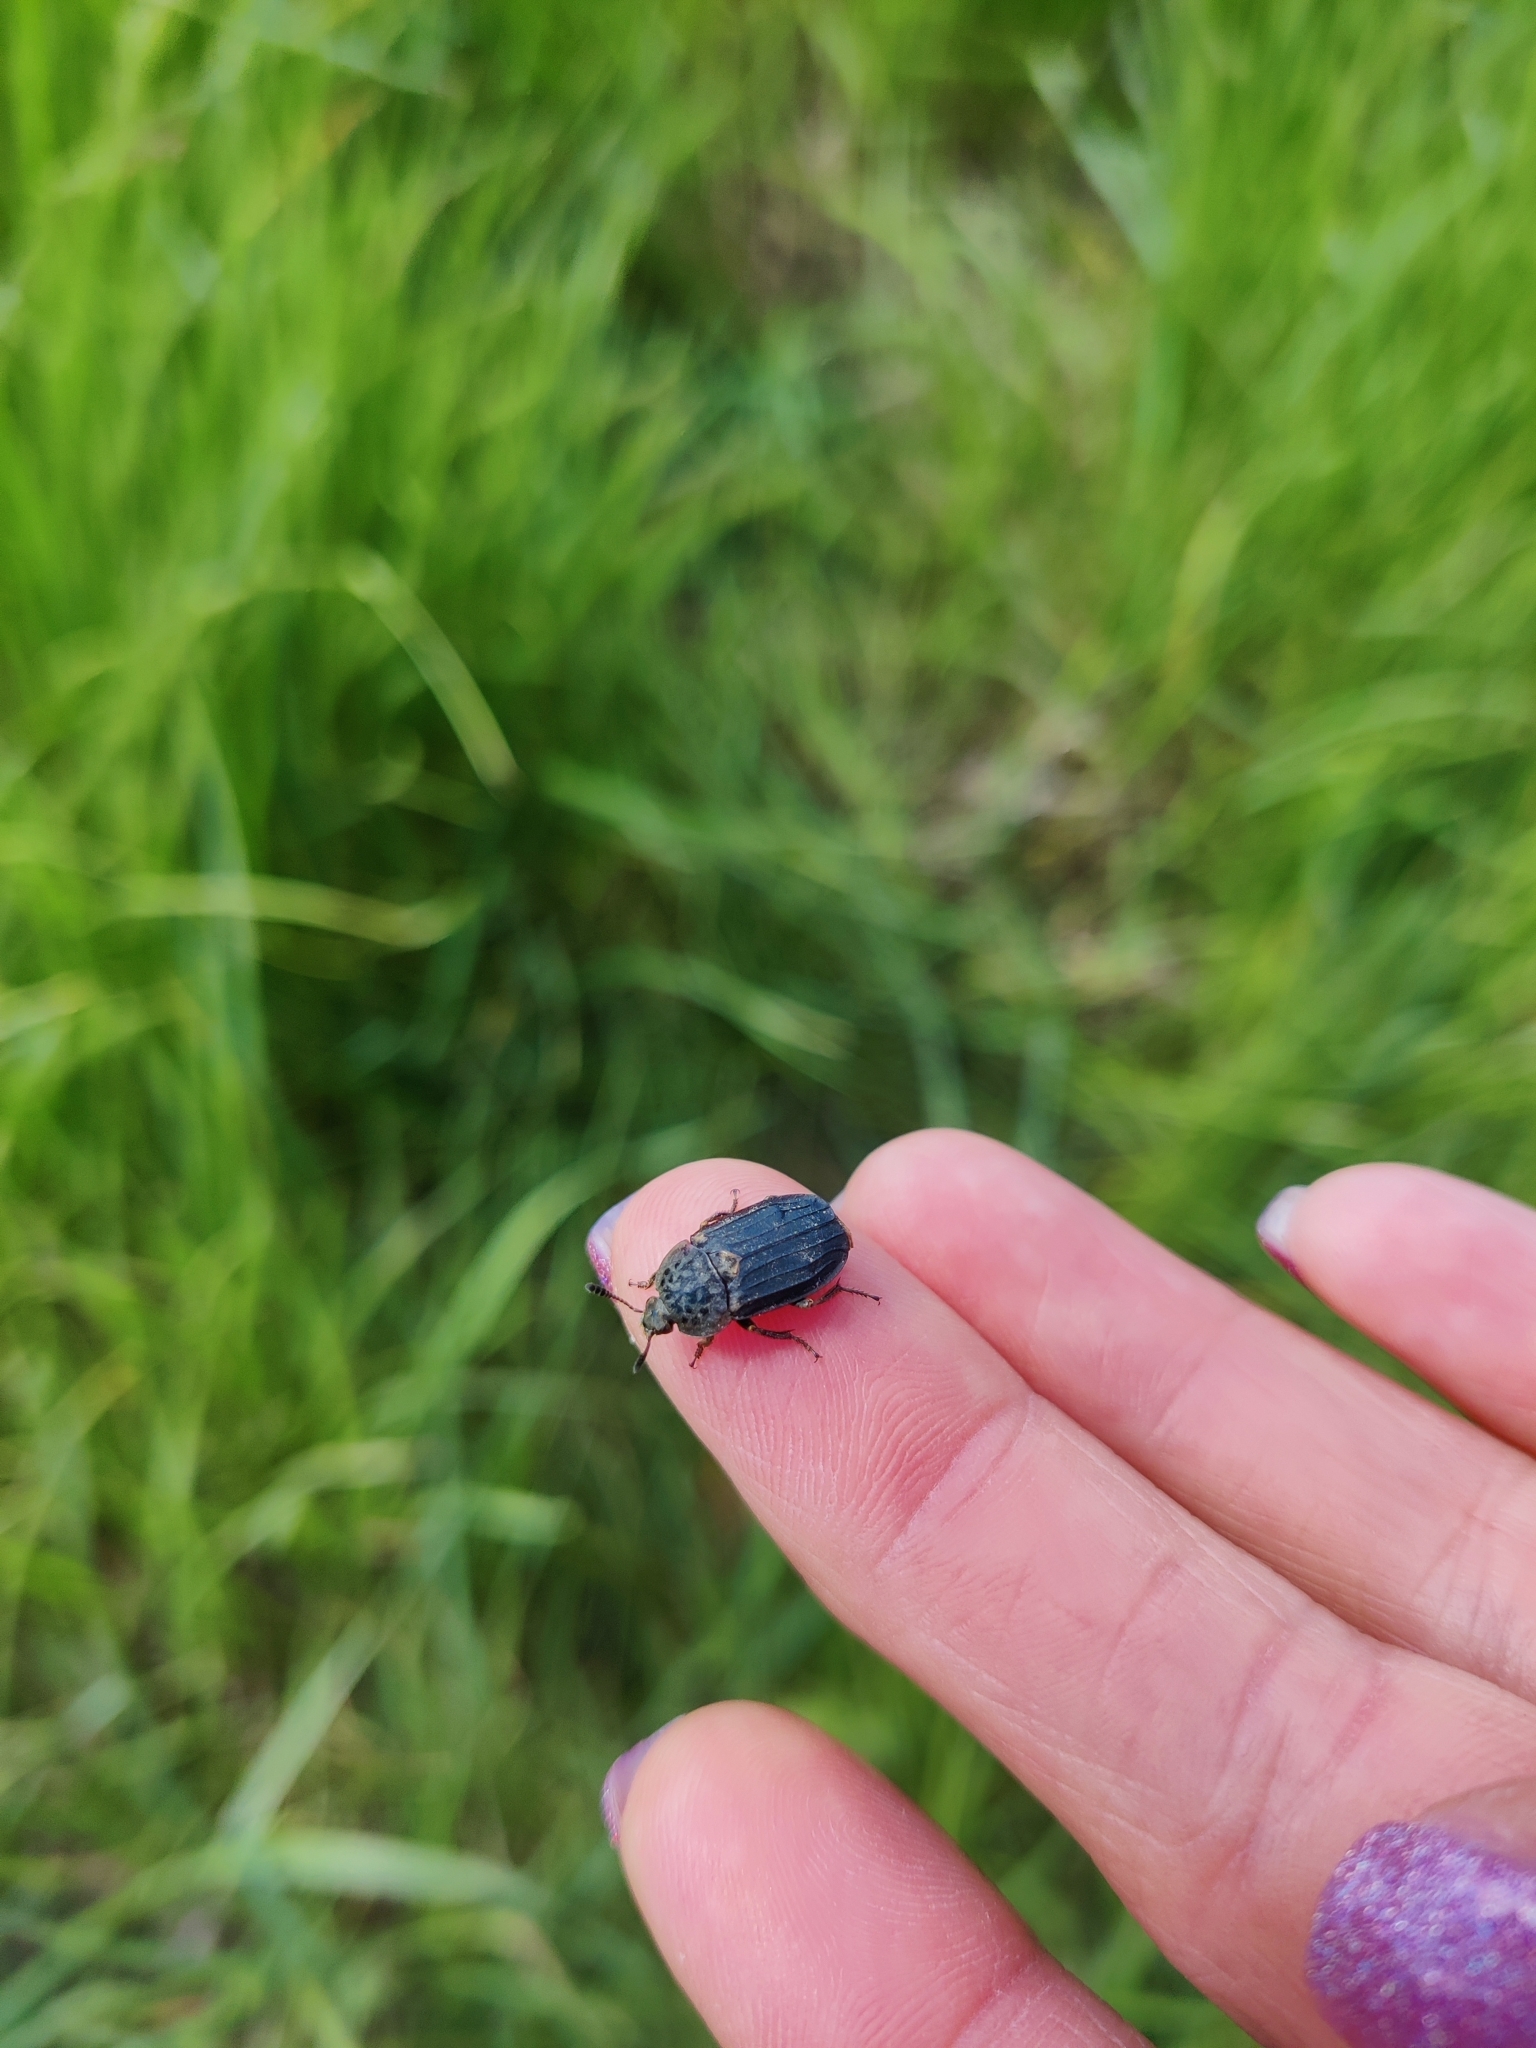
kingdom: Animalia
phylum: Arthropoda
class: Insecta
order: Coleoptera
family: Staphylinidae
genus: Thanatophilus
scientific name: Thanatophilus sinuatus
